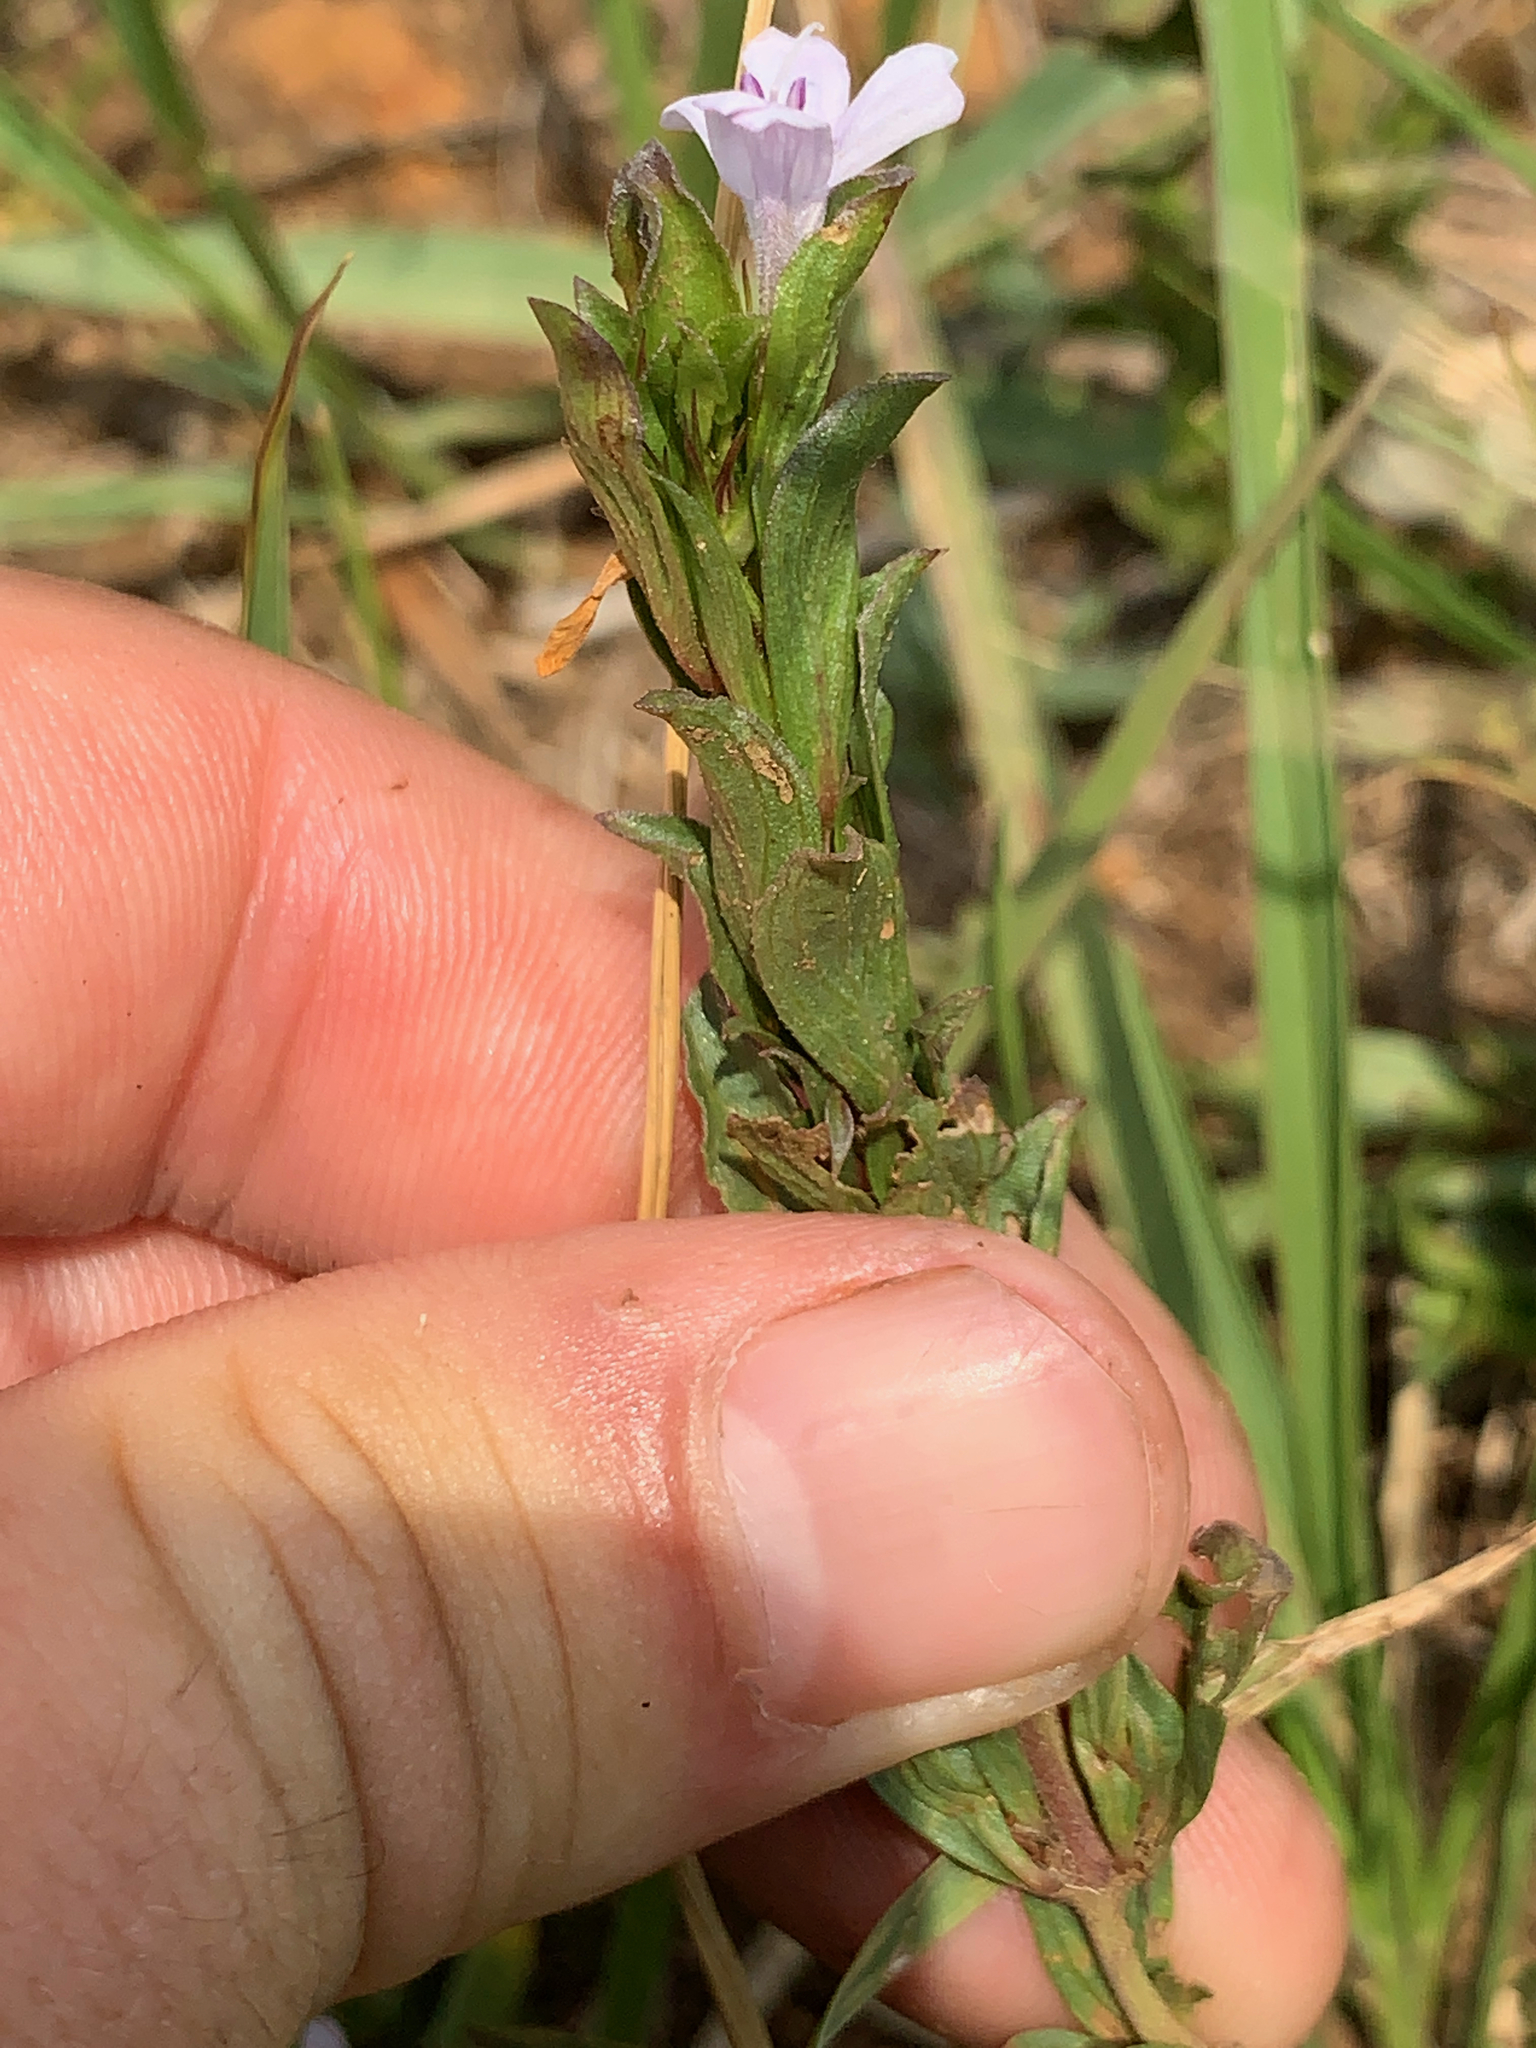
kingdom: Plantae
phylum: Tracheophyta
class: Magnoliopsida
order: Lamiales
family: Acanthaceae
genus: Dyschoriste
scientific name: Dyschoriste costata
